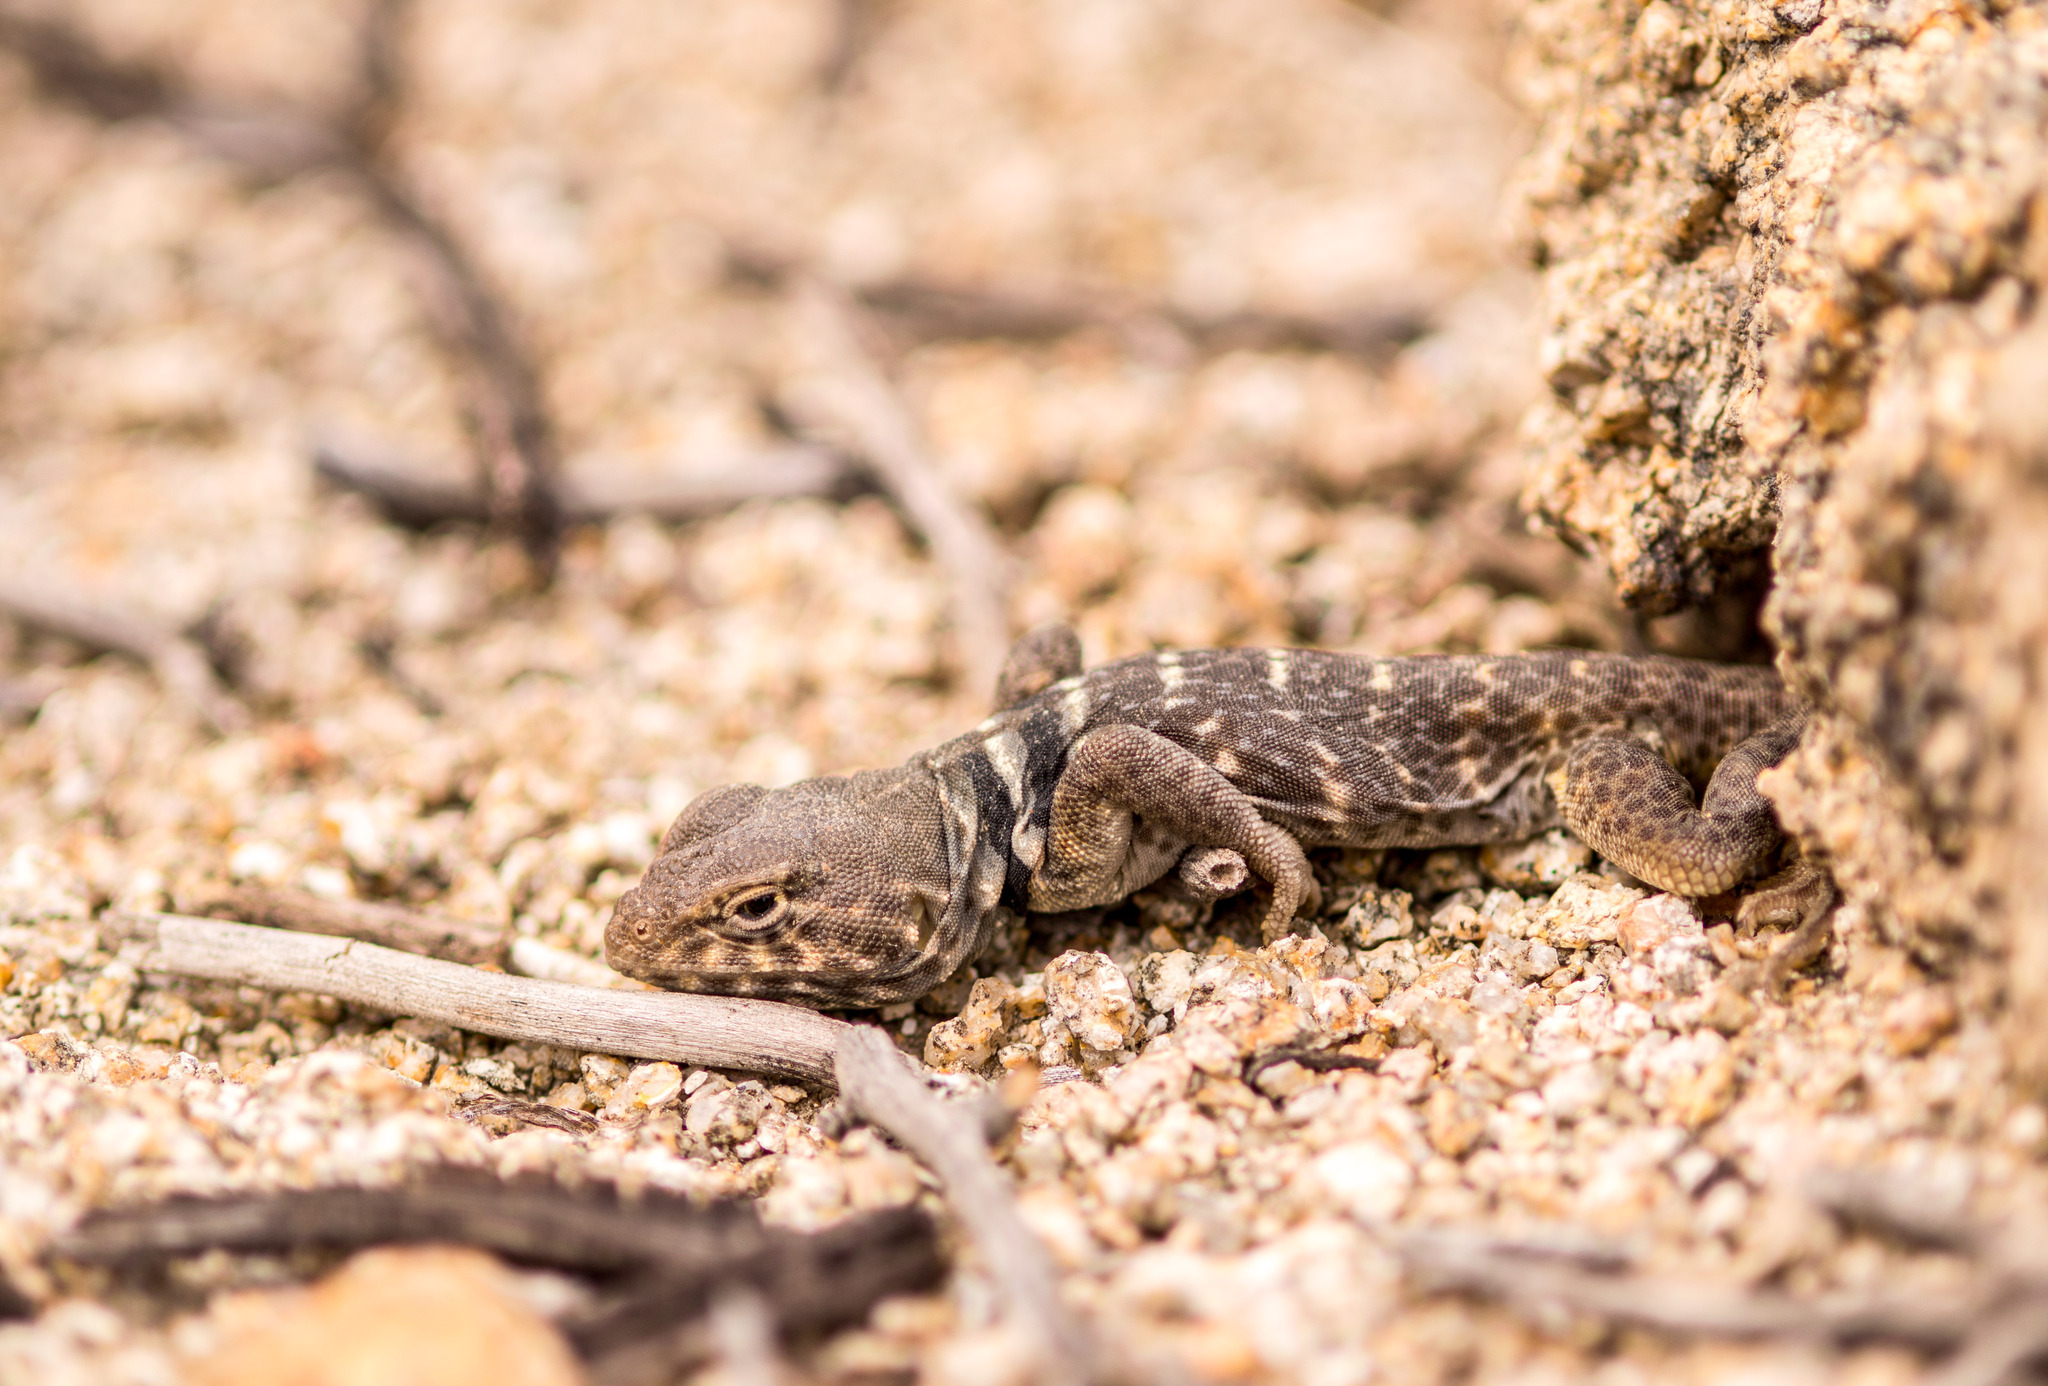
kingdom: Animalia
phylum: Chordata
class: Squamata
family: Crotaphytidae
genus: Crotaphytus
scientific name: Crotaphytus bicinctores
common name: Mojave black-collared lizard
